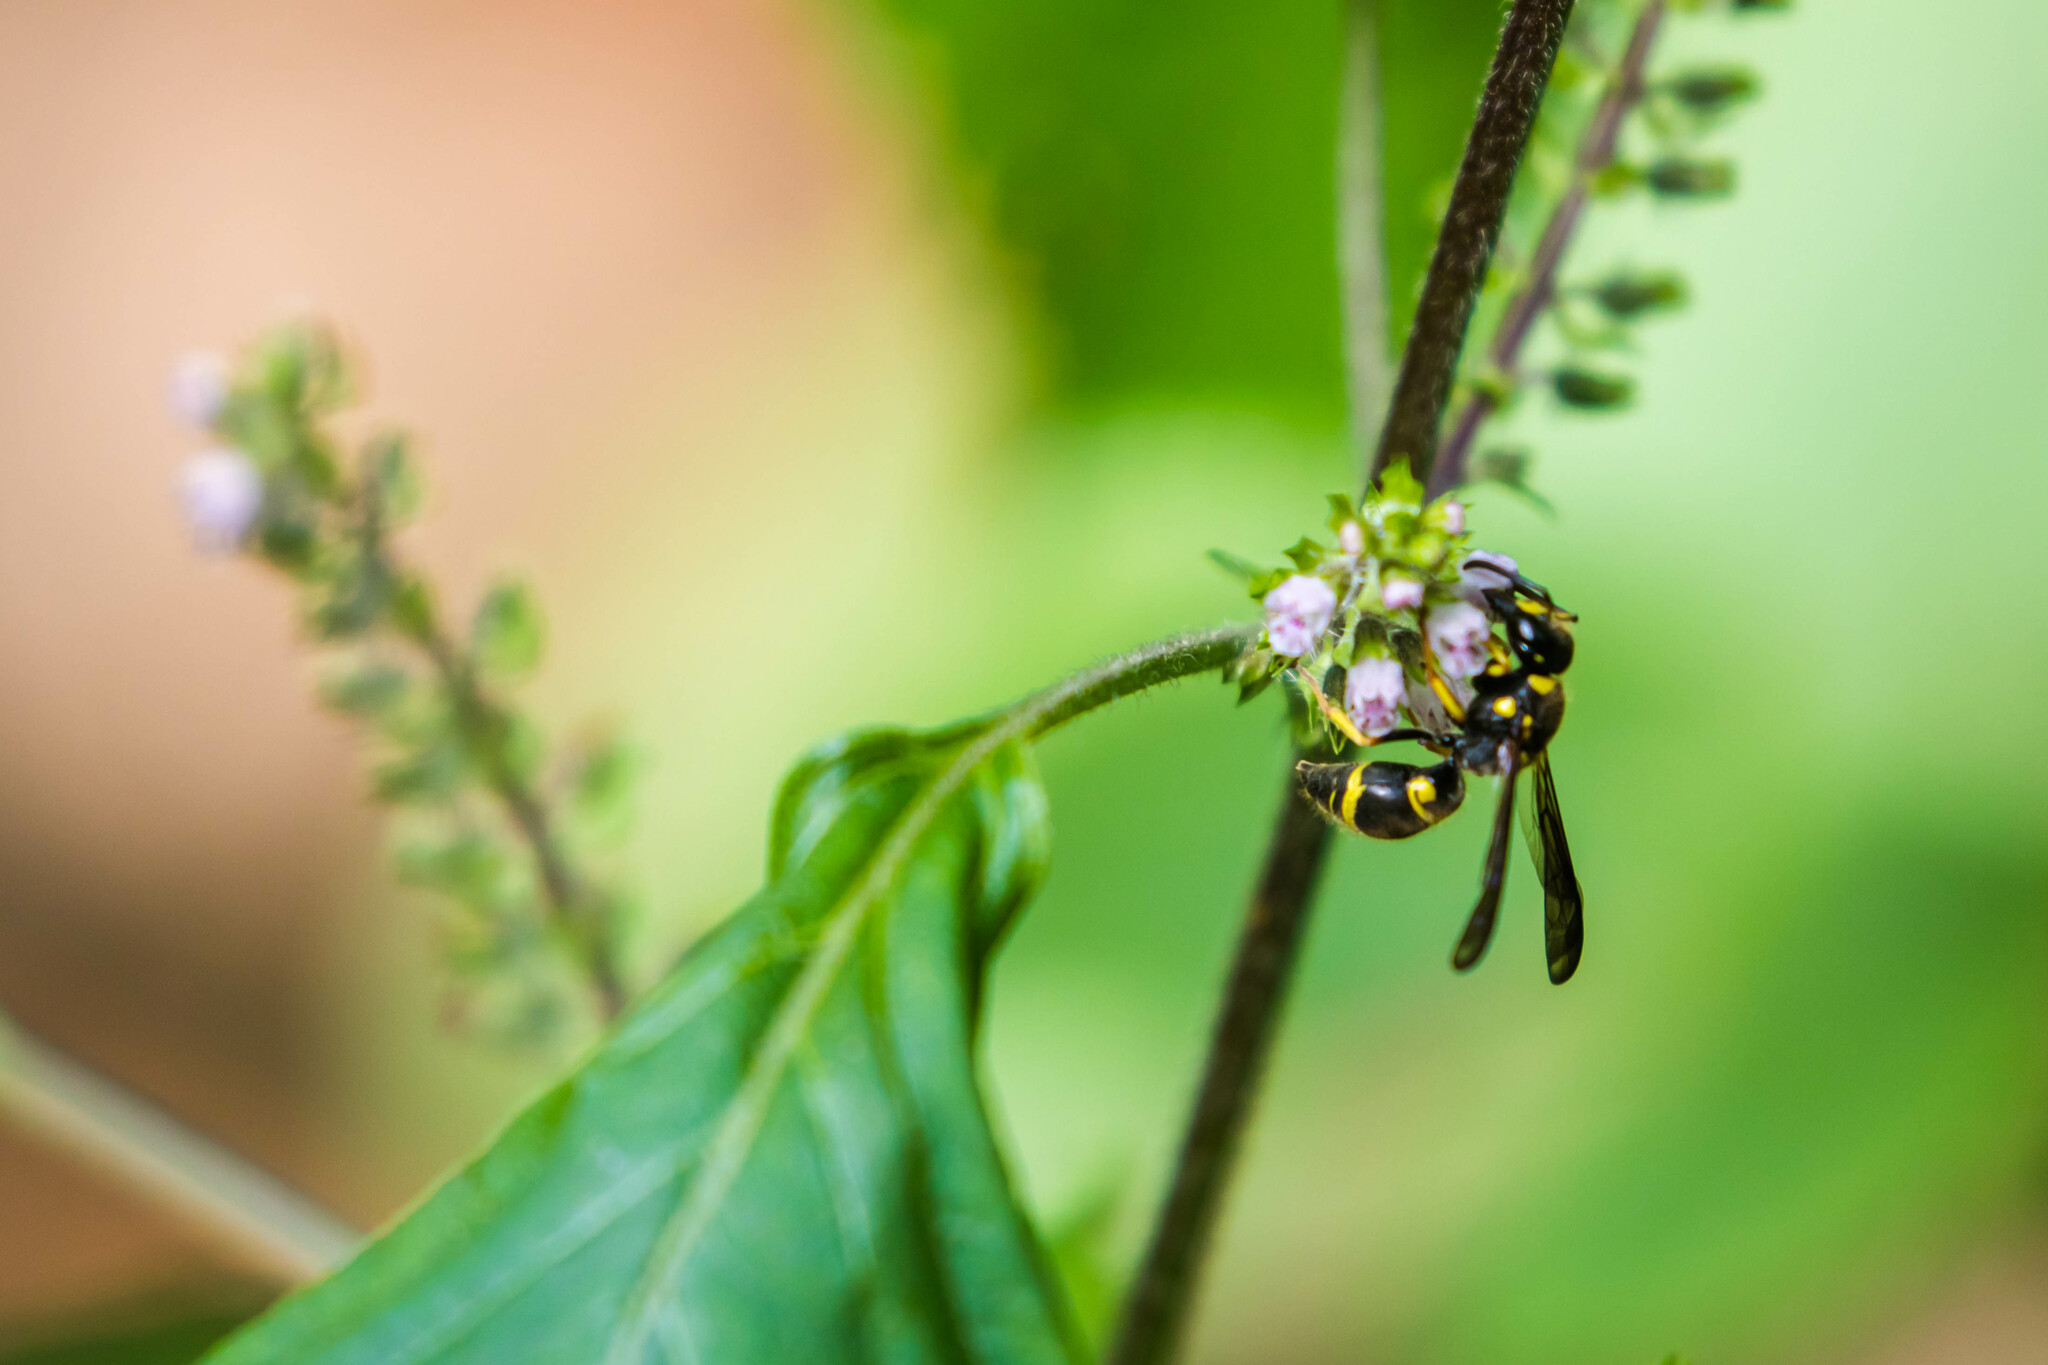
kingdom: Animalia
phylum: Arthropoda
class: Insecta
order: Hymenoptera
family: Vespidae
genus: Ancistrocerus
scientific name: Ancistrocerus campestris
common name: Smiling mason wasp
